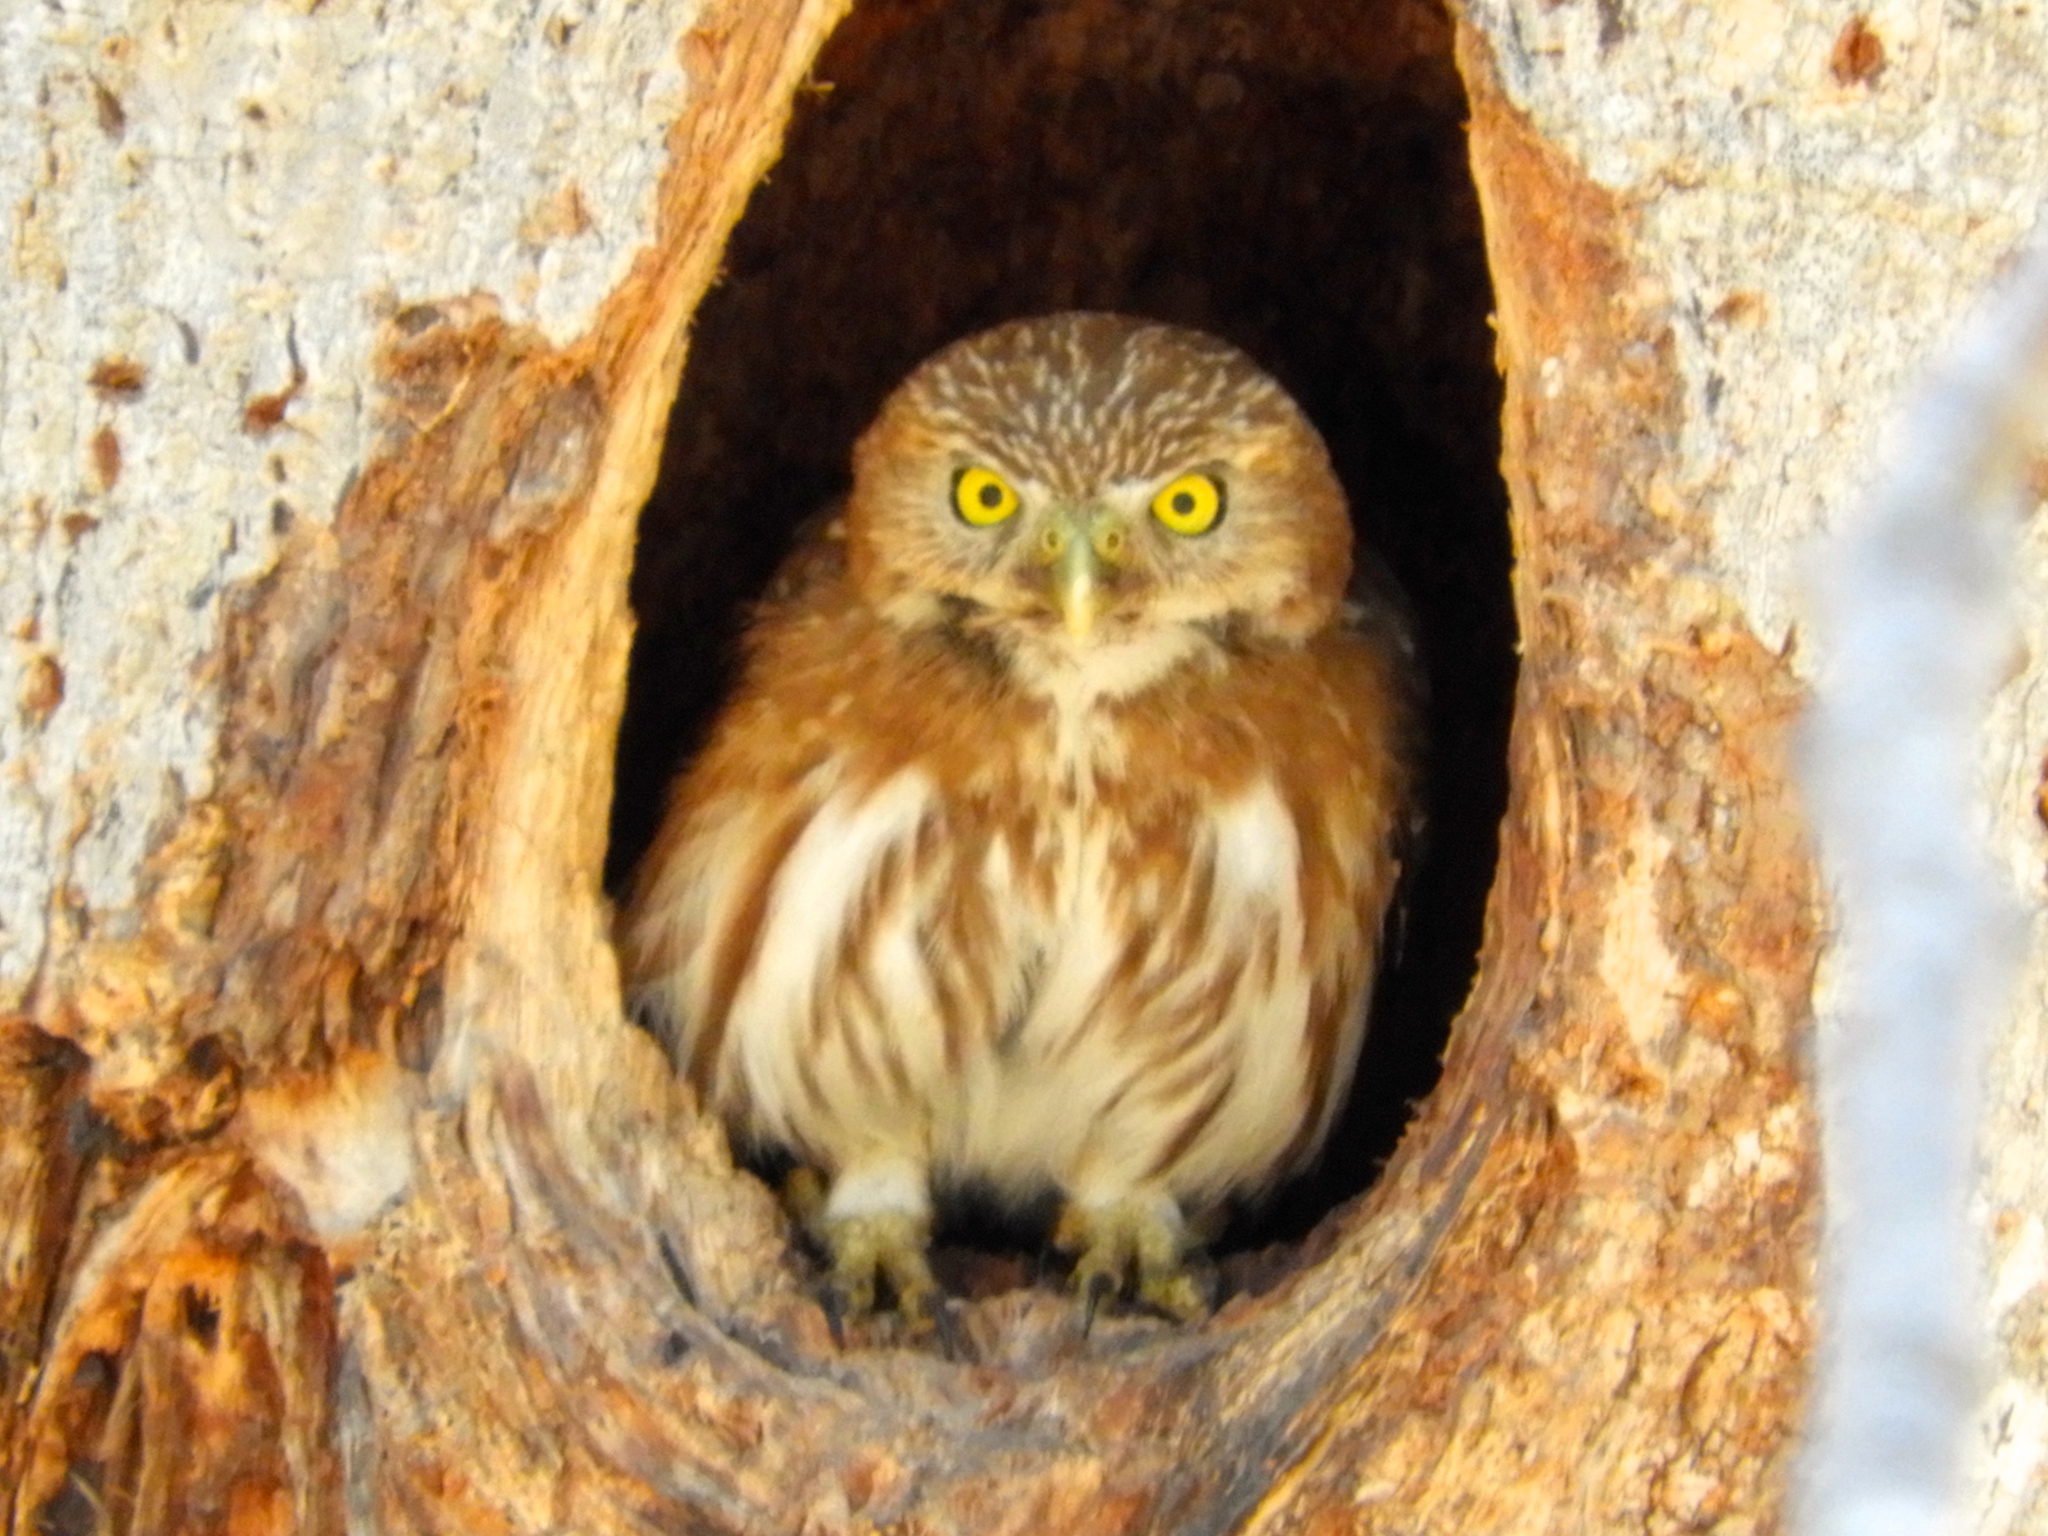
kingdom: Animalia
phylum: Chordata
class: Aves
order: Strigiformes
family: Strigidae
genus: Glaucidium
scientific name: Glaucidium brasilianum
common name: Ferruginous pygmy-owl
